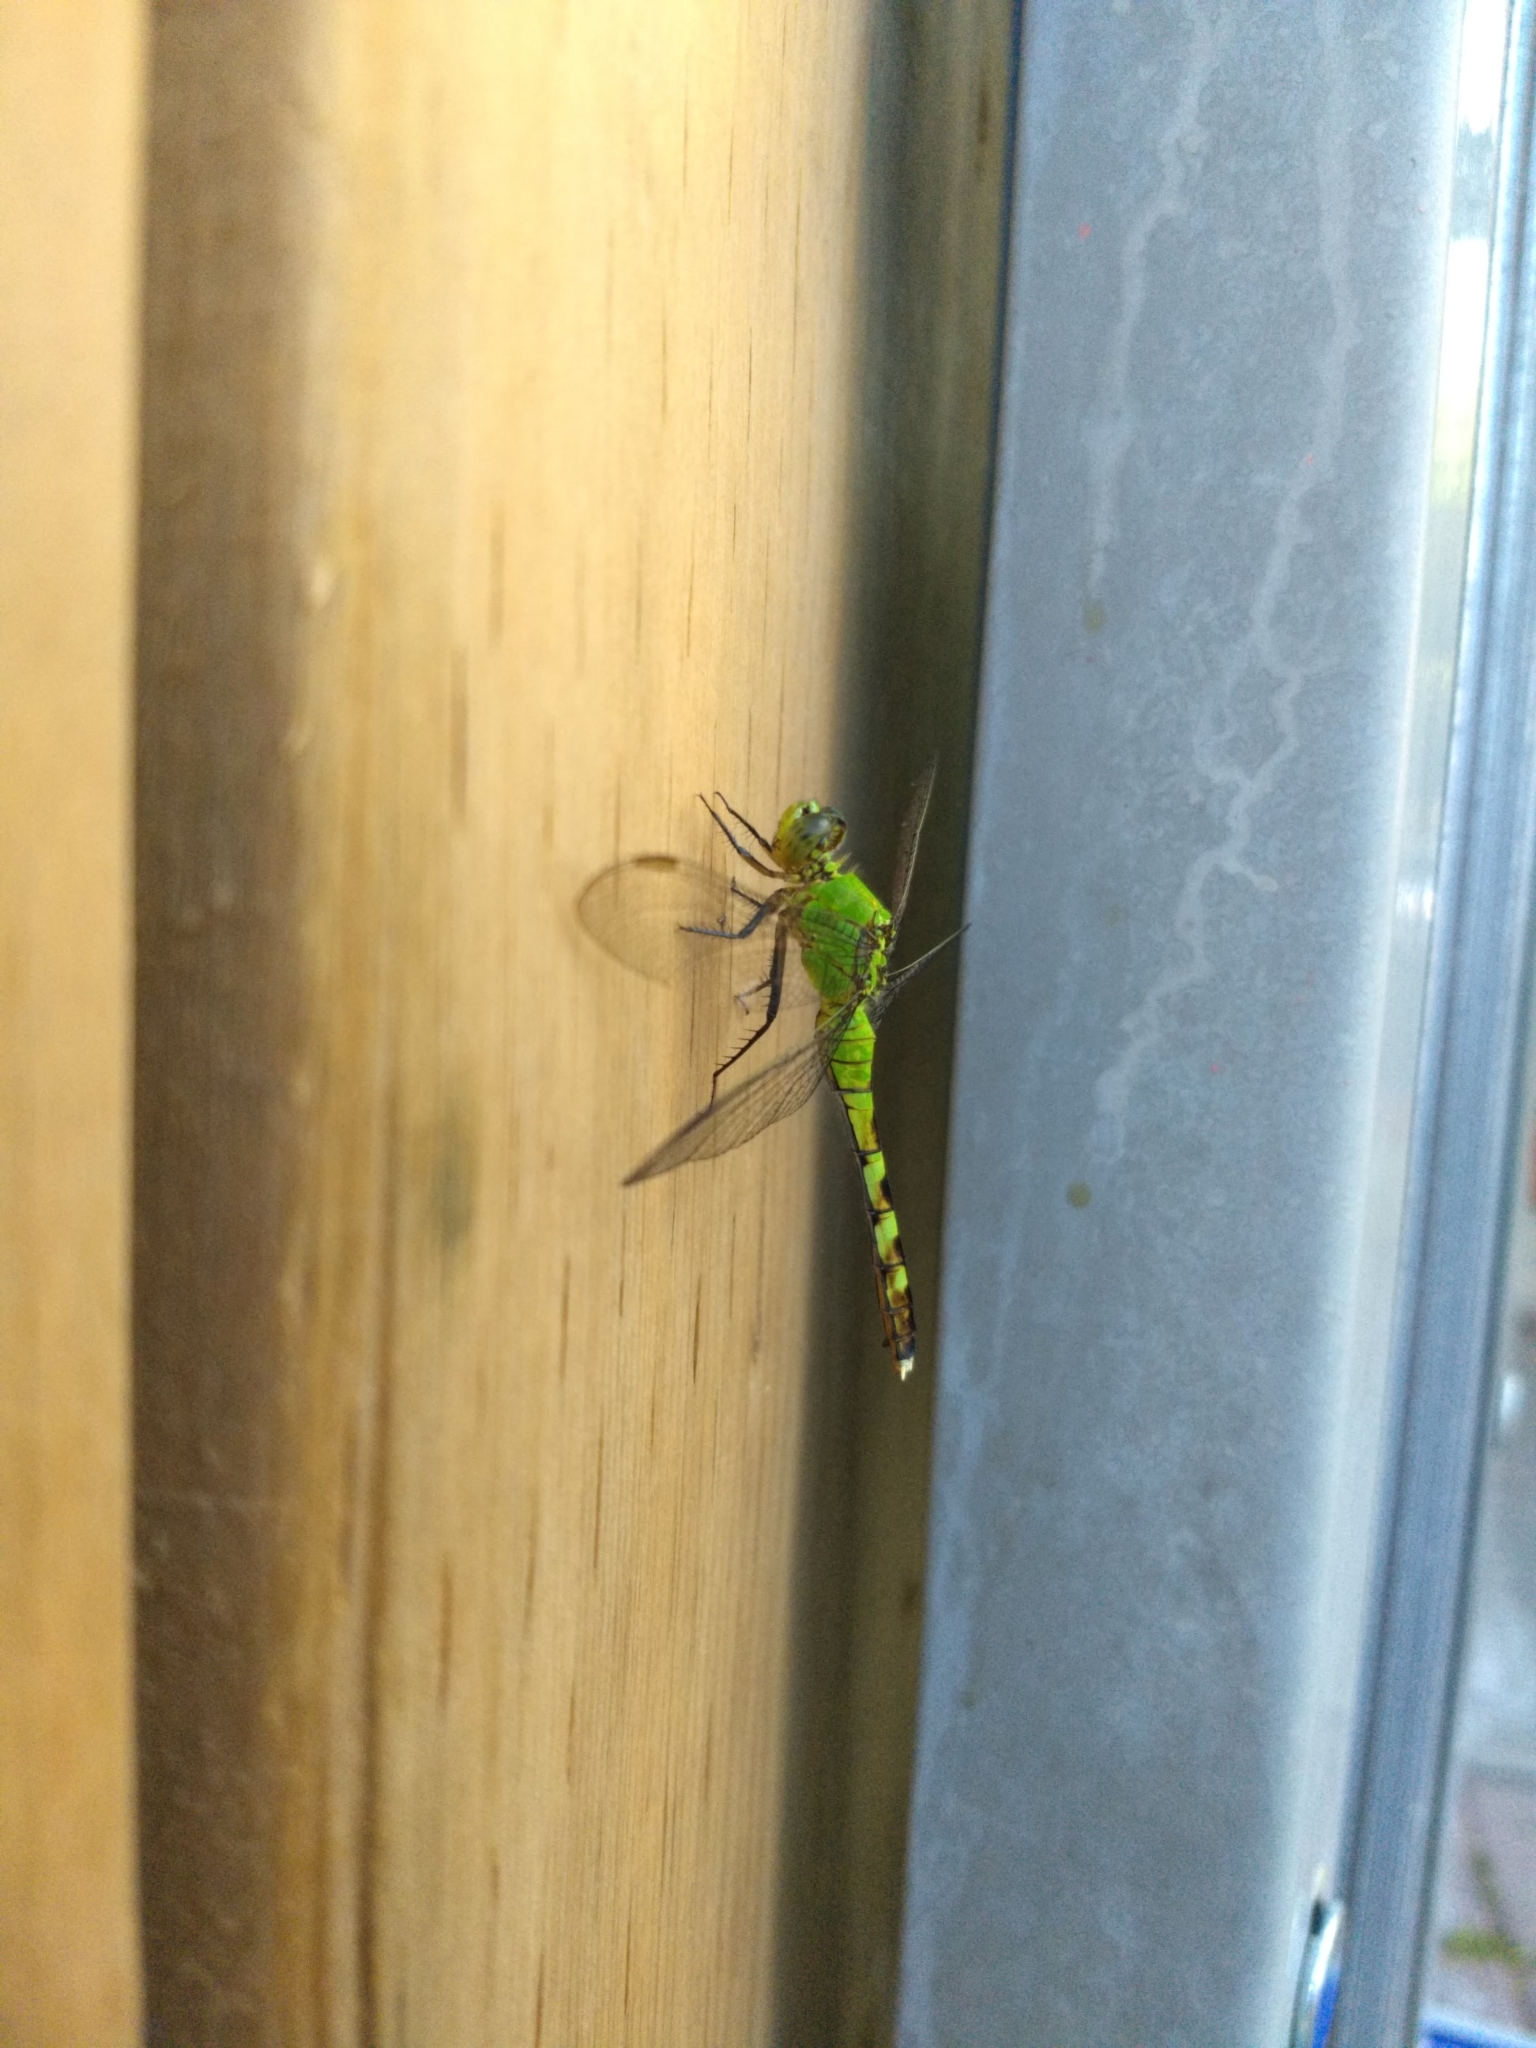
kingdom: Animalia
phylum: Arthropoda
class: Insecta
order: Odonata
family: Libellulidae
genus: Erythemis
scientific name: Erythemis simplicicollis
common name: Eastern pondhawk
